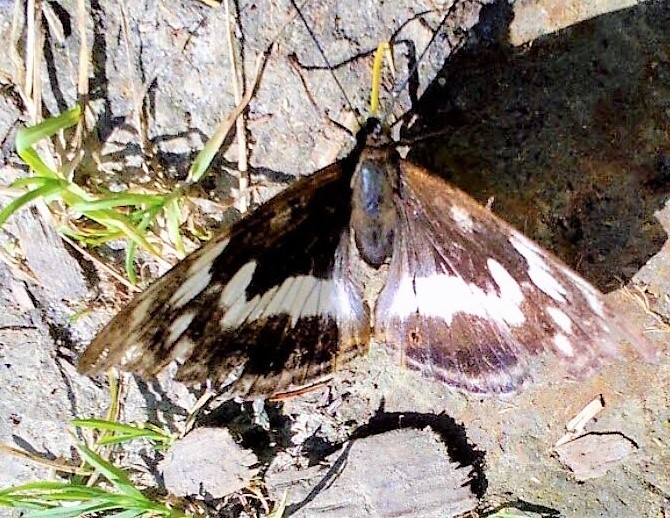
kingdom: Animalia
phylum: Arthropoda
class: Insecta
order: Lepidoptera
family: Nymphalidae
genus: Apatura
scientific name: Apatura iris
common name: Purple emperor
